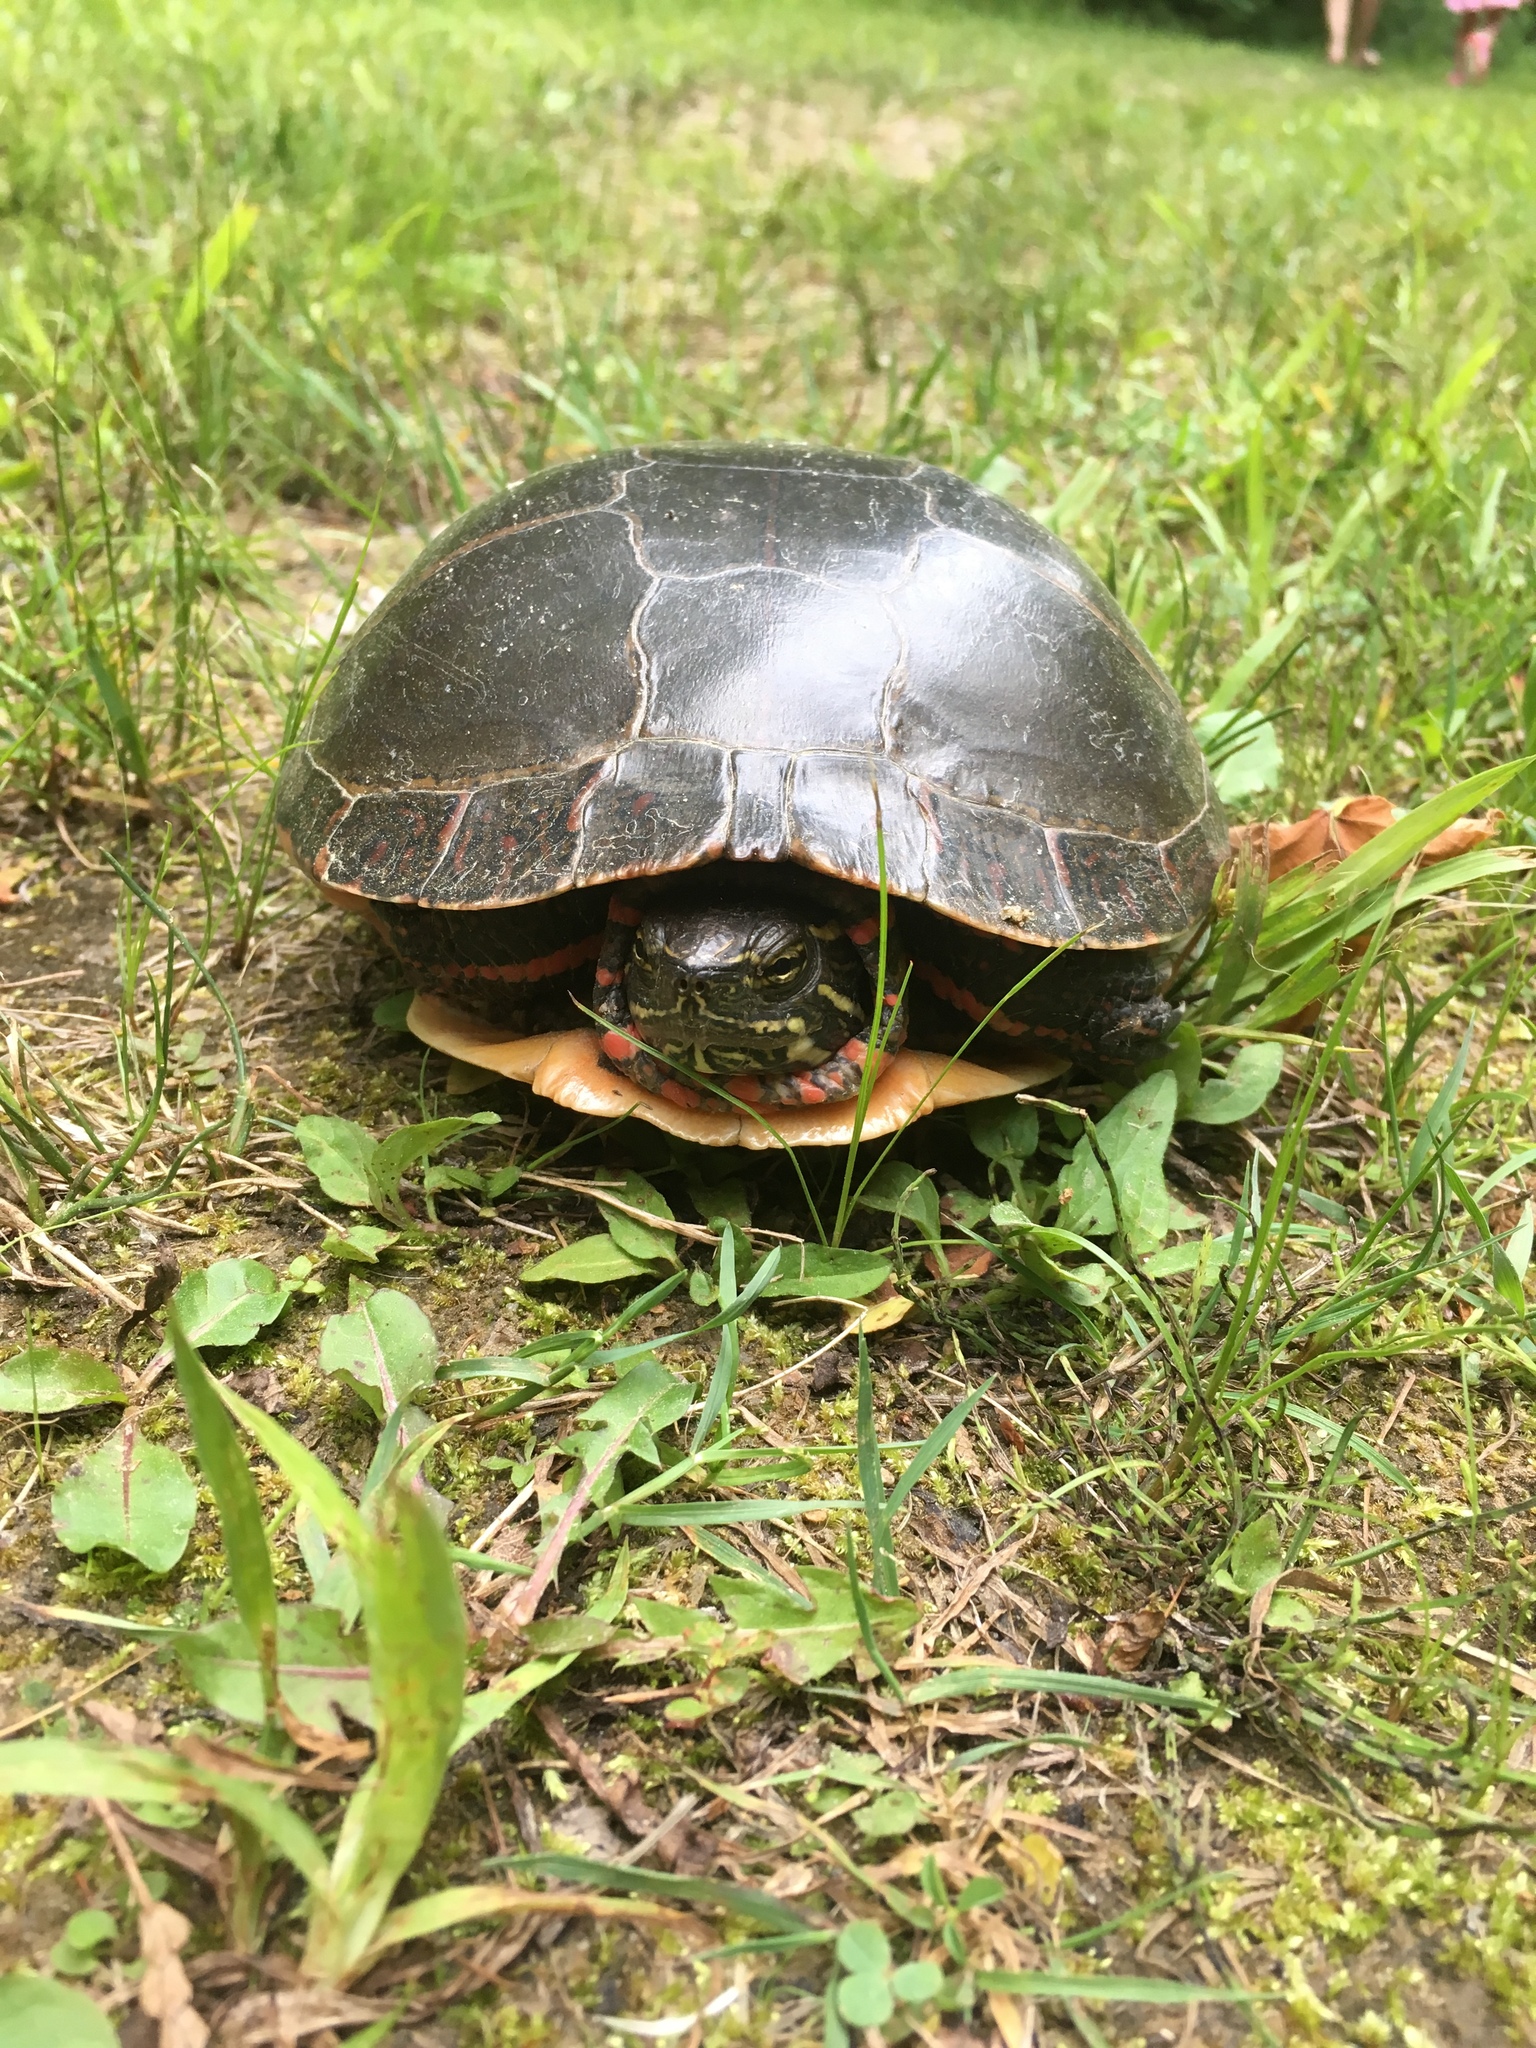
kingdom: Animalia
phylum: Chordata
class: Testudines
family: Emydidae
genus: Chrysemys
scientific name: Chrysemys picta
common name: Painted turtle
